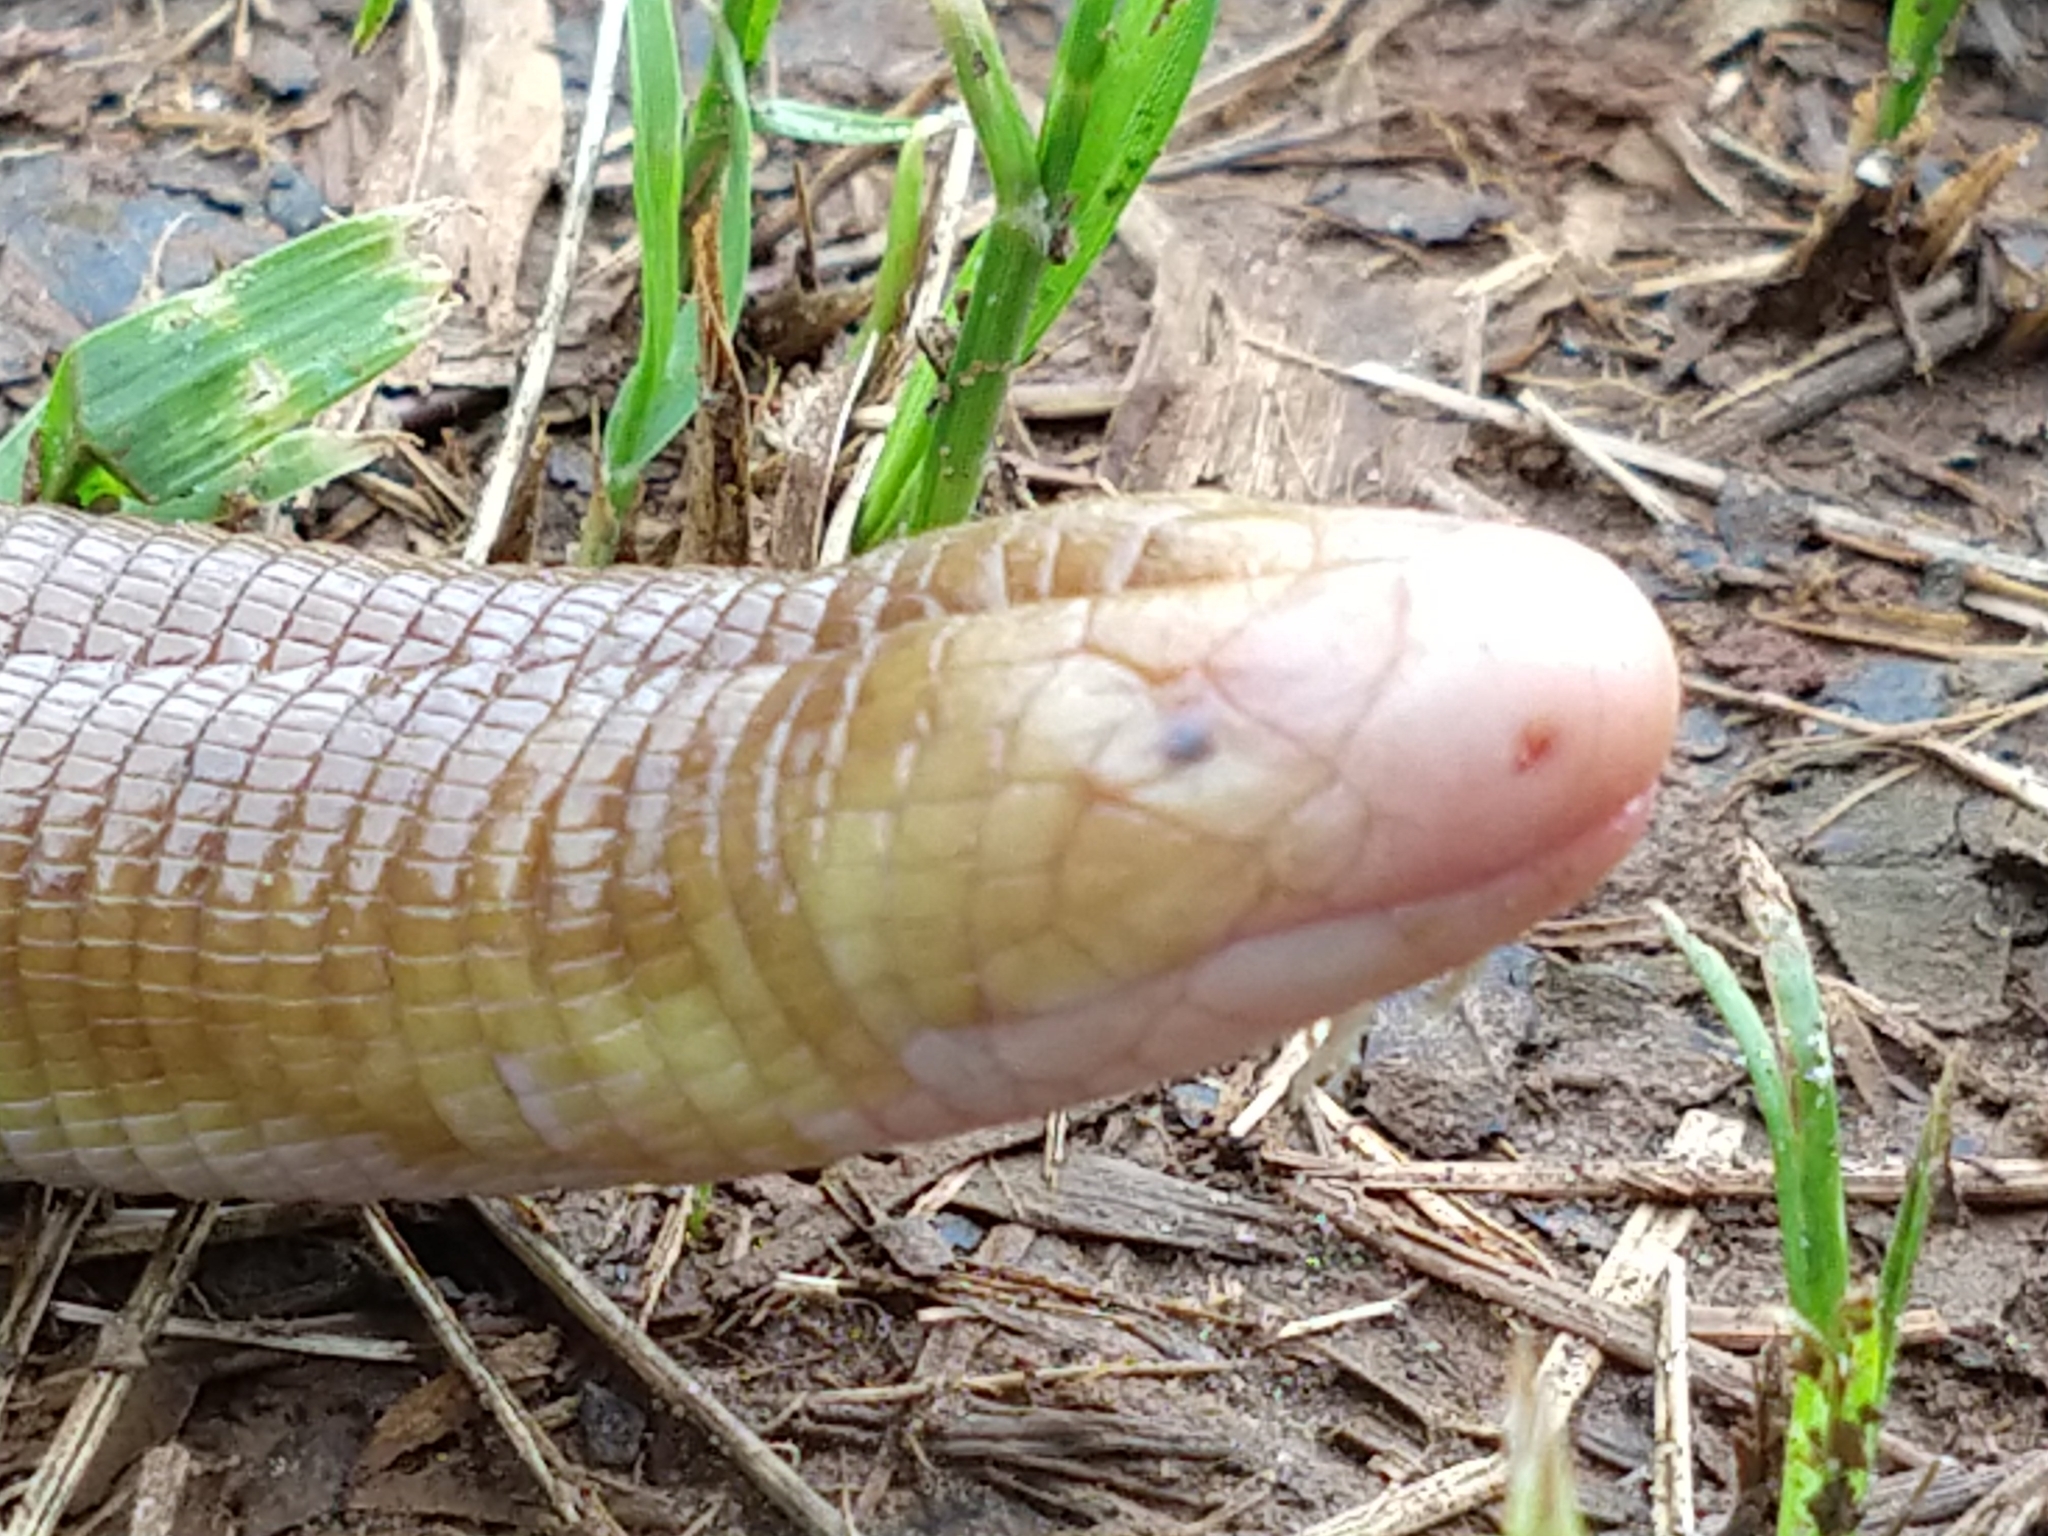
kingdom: Animalia
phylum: Chordata
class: Squamata
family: Amphisbaenidae
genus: Amphisbaena
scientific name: Amphisbaena alba
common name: Red worm lizard
